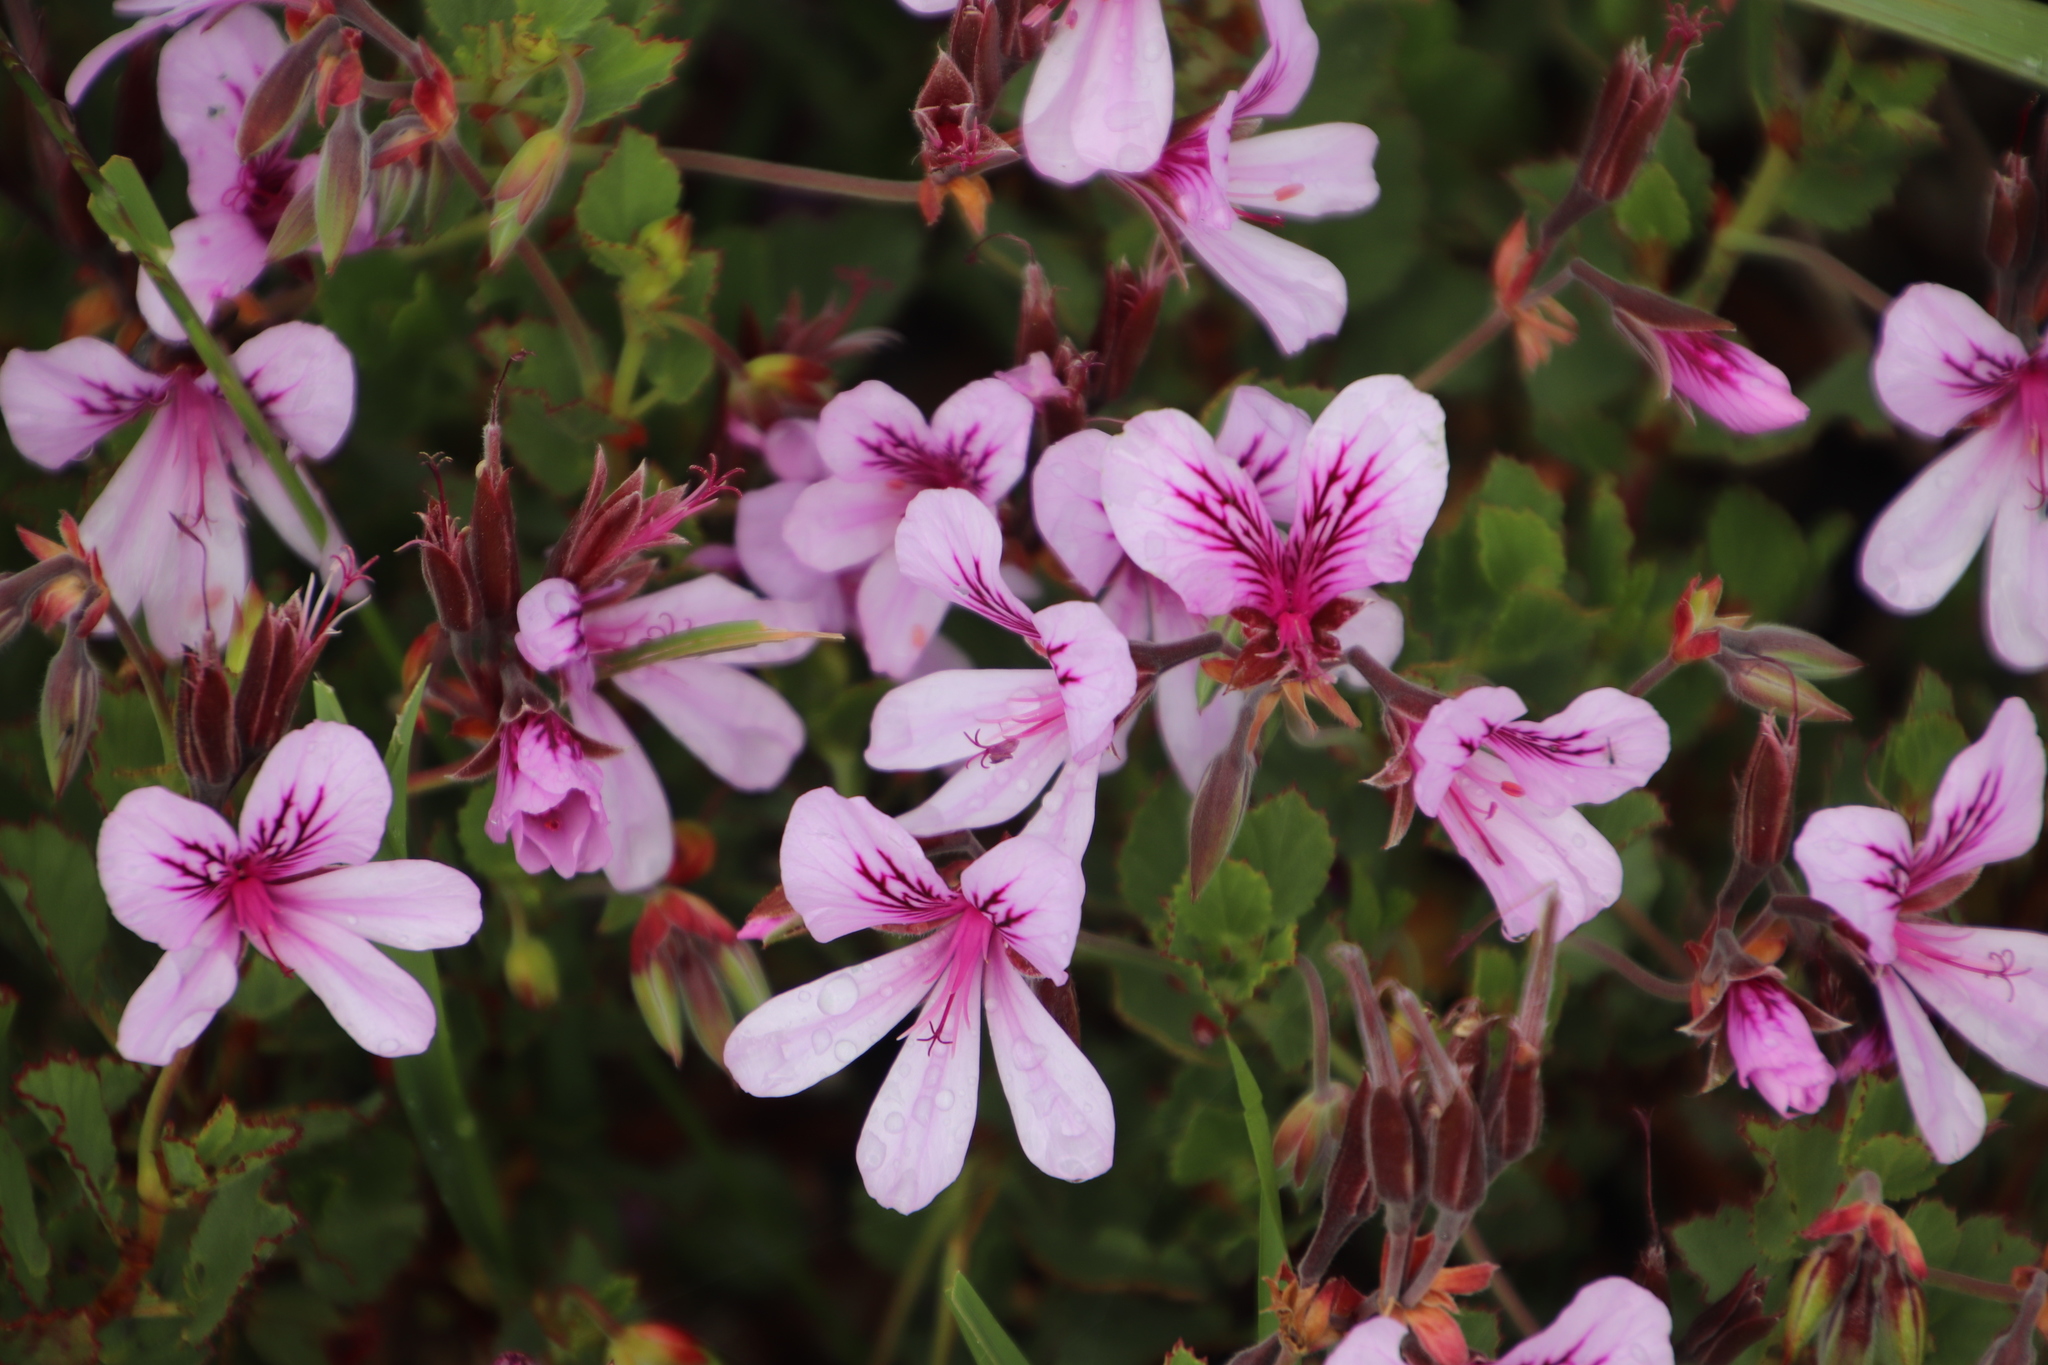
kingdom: Plantae
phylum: Tracheophyta
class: Magnoliopsida
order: Geraniales
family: Geraniaceae
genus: Pelargonium
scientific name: Pelargonium betulinum
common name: Birch-leaf pelargonium
